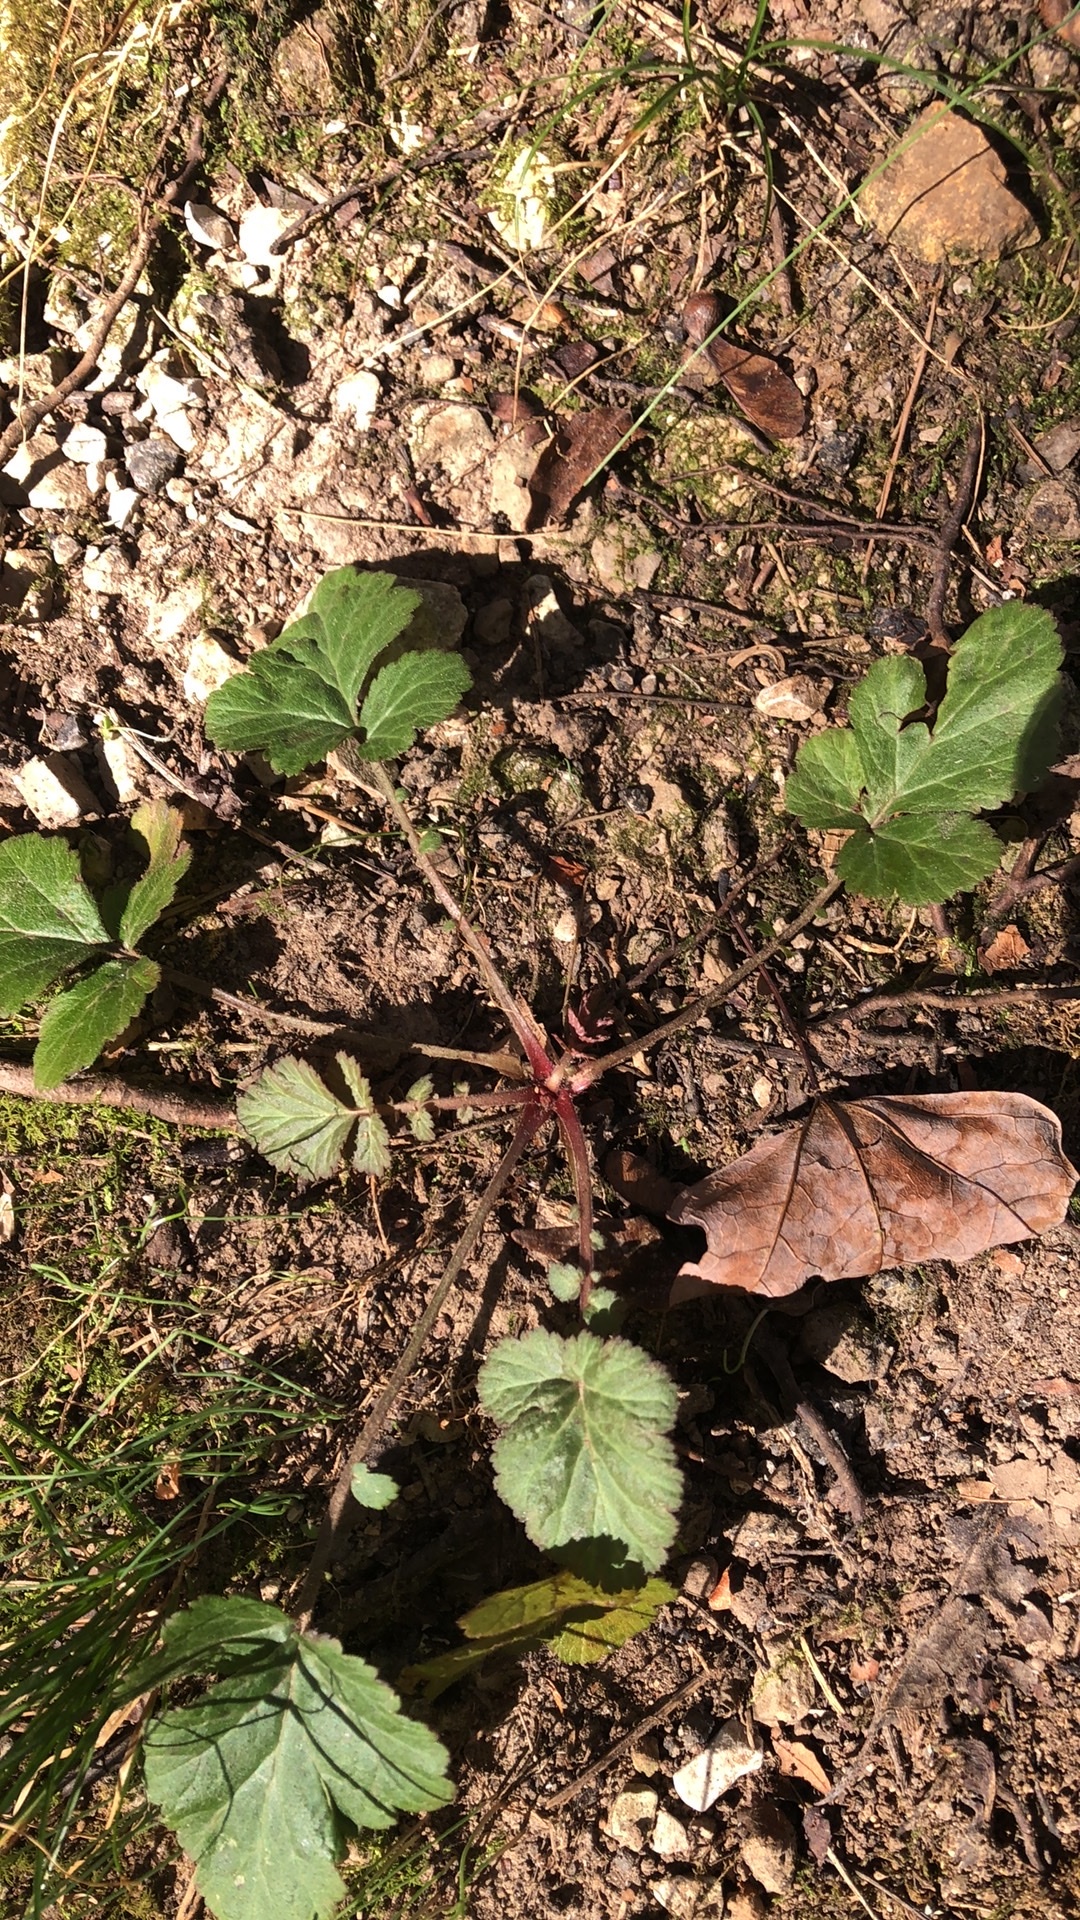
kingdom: Plantae
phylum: Tracheophyta
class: Magnoliopsida
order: Rosales
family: Rosaceae
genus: Geum
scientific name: Geum canadense
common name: White avens
